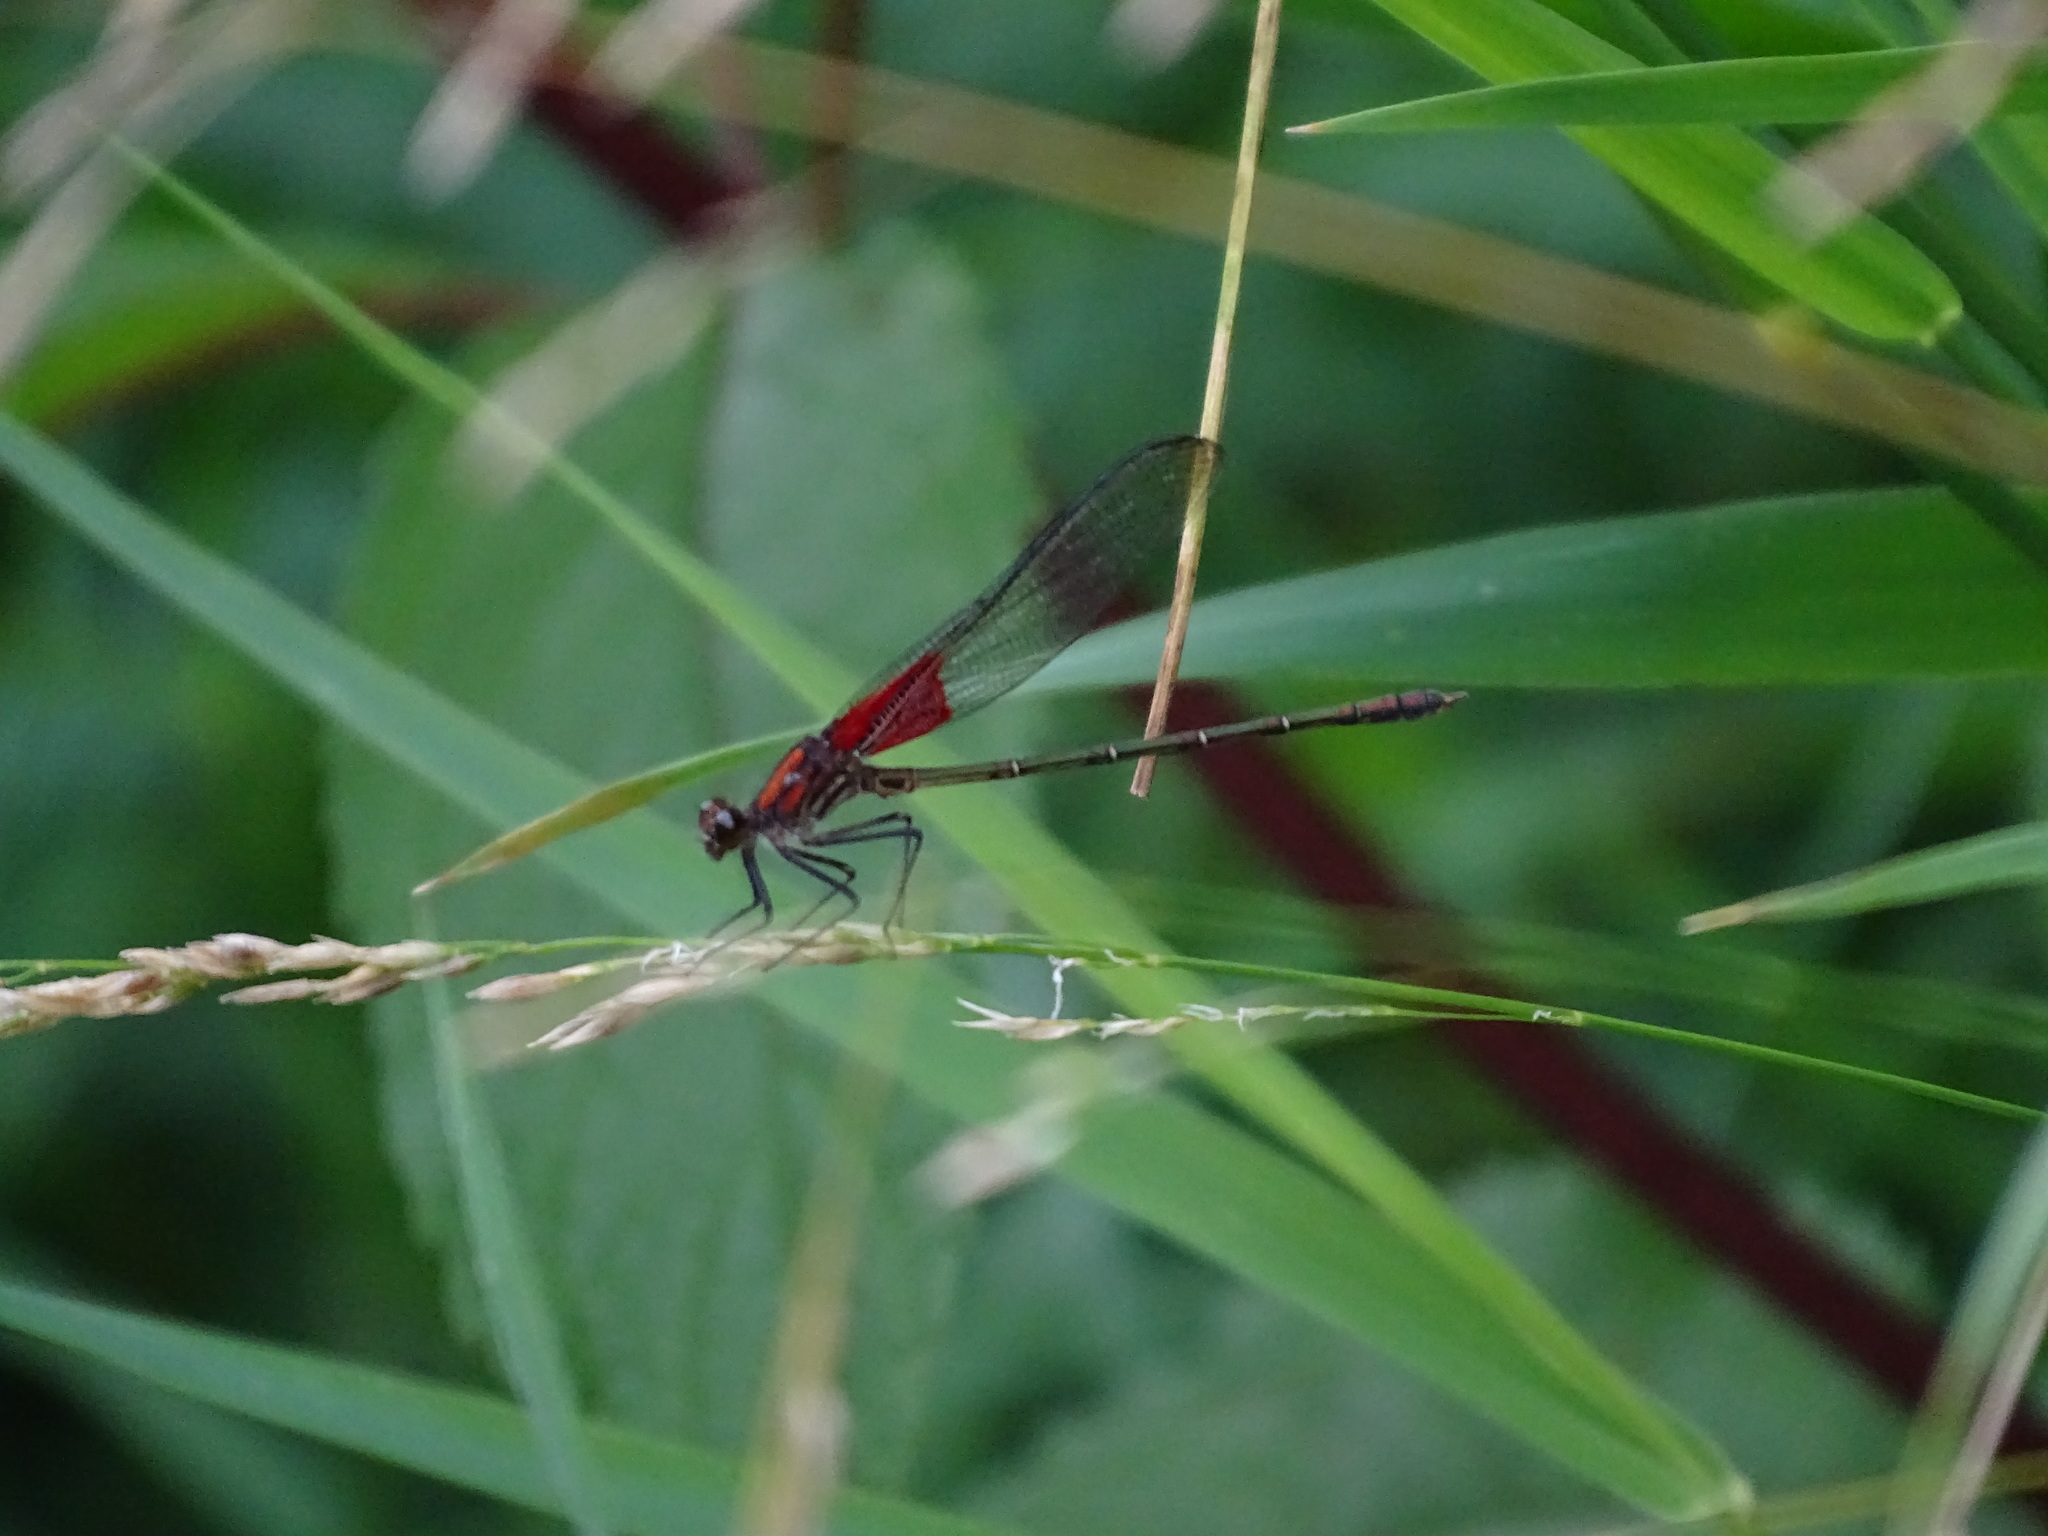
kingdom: Animalia
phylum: Arthropoda
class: Insecta
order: Odonata
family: Calopterygidae
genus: Hetaerina
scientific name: Hetaerina americana
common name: American rubyspot
